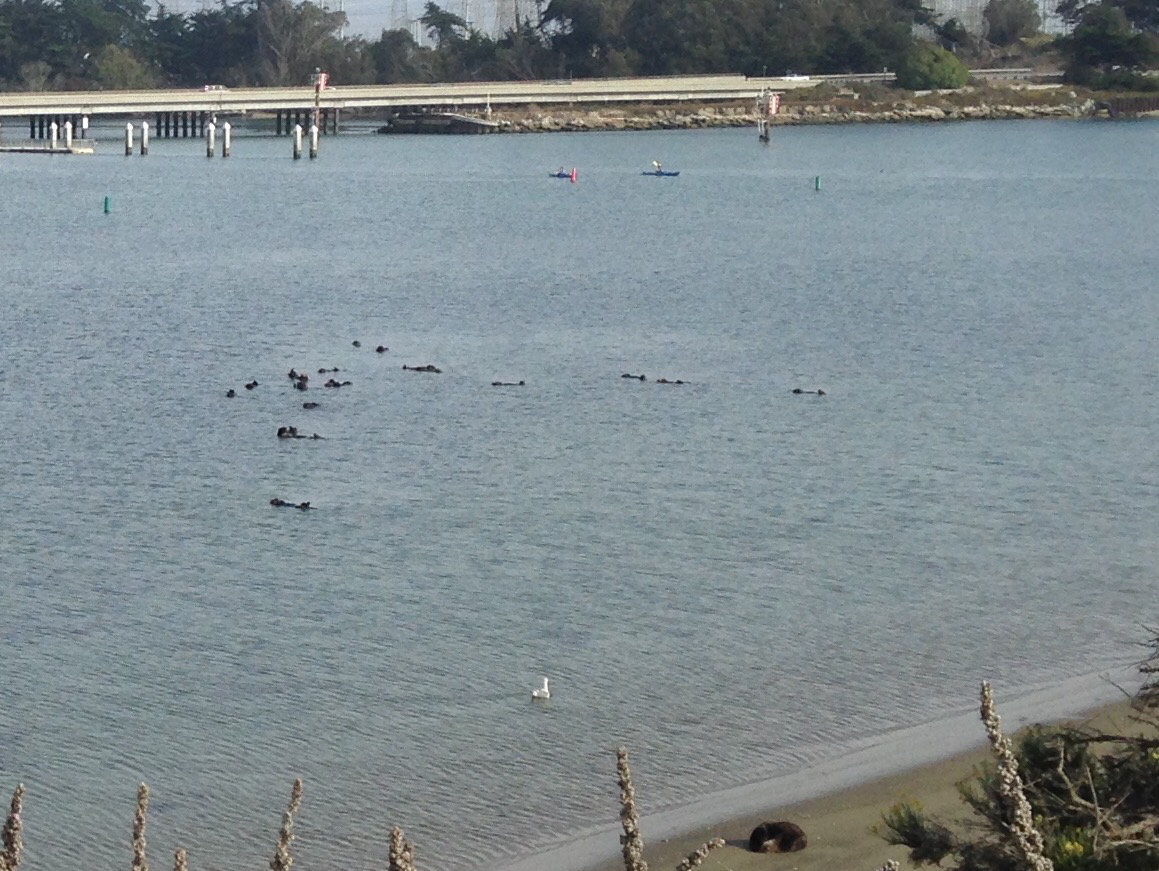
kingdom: Animalia
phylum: Chordata
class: Mammalia
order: Carnivora
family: Mustelidae
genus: Enhydra
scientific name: Enhydra lutris
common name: Sea otter
